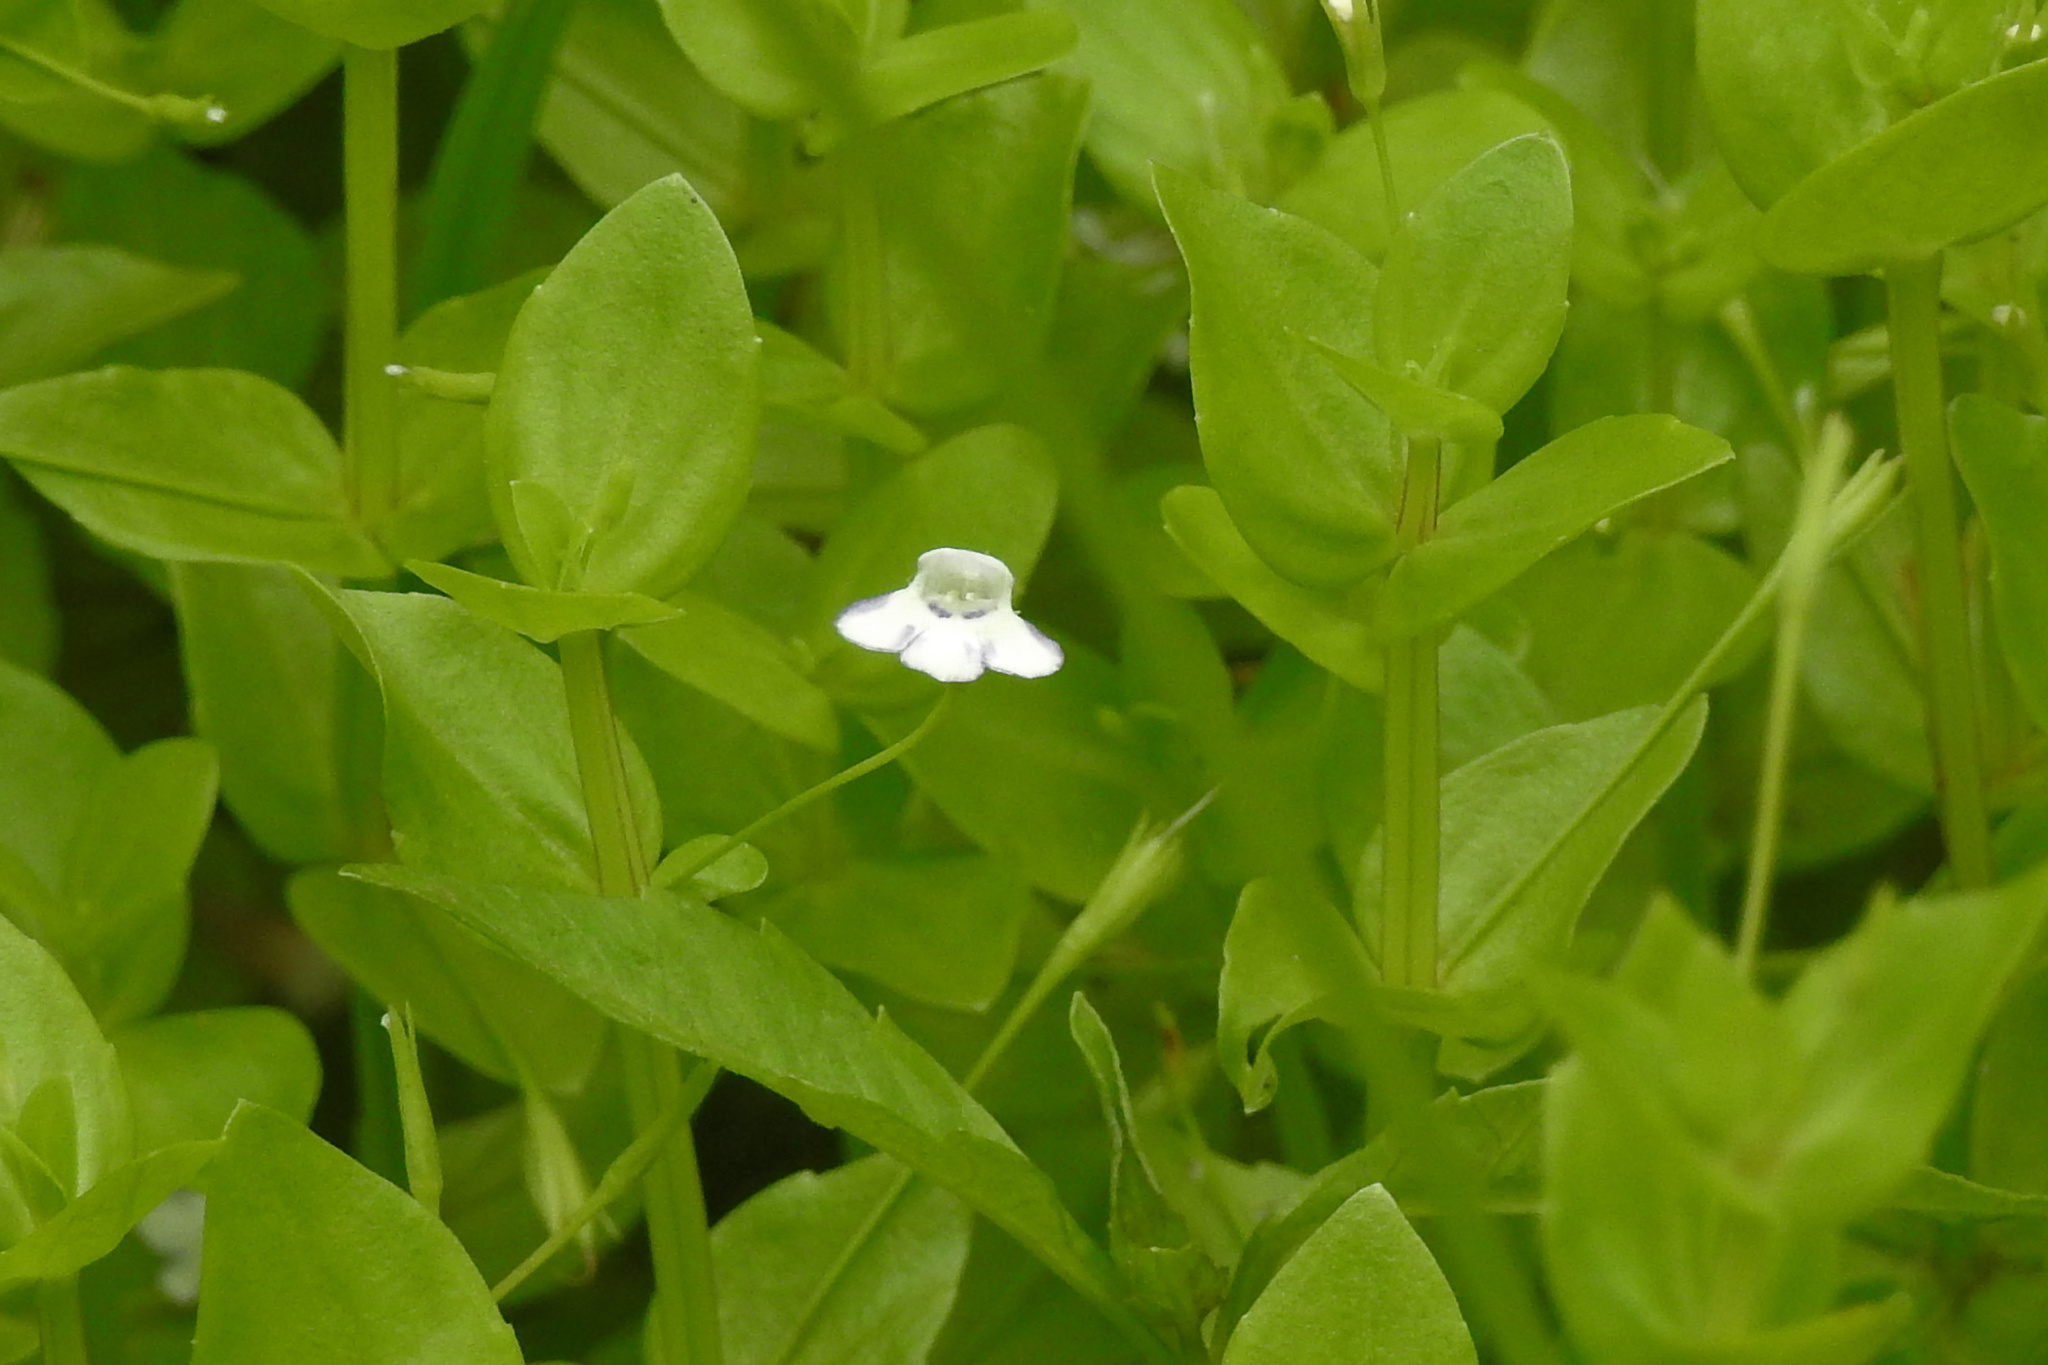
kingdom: Plantae
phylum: Tracheophyta
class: Magnoliopsida
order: Lamiales
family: Linderniaceae
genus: Lindernia
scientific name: Lindernia dubia
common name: Annual false pimpernel
